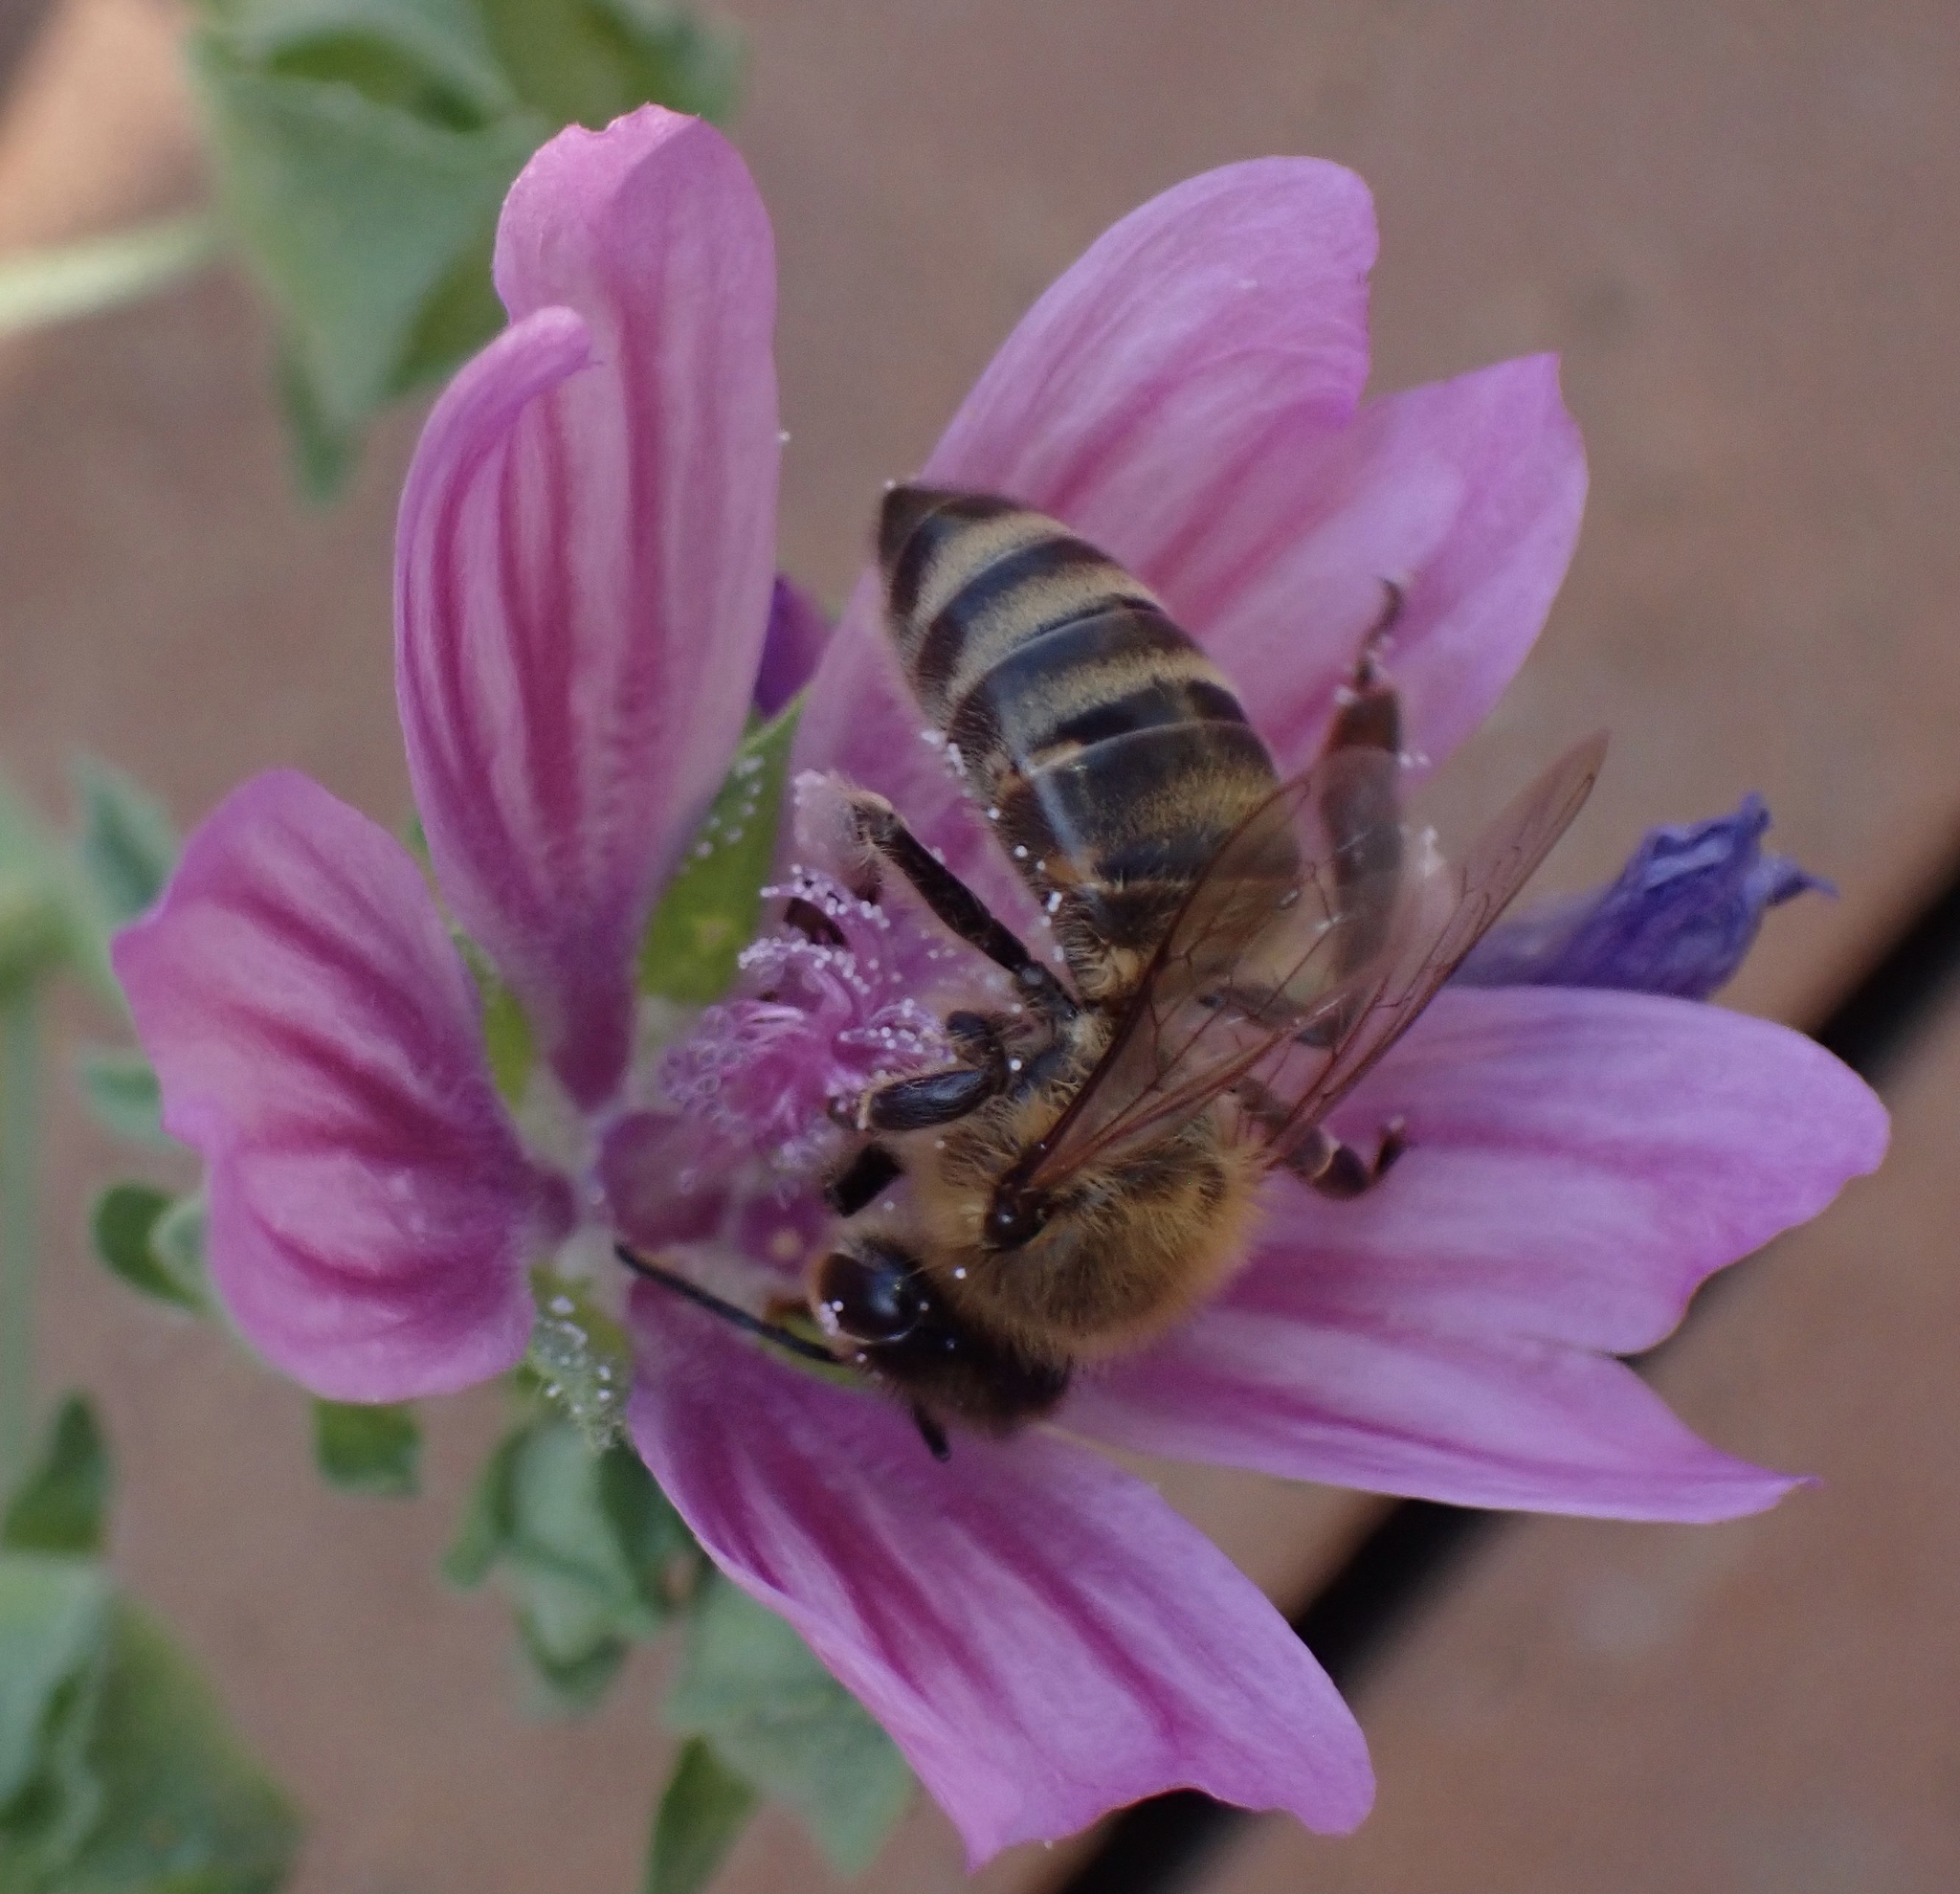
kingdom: Animalia
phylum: Arthropoda
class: Insecta
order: Hymenoptera
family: Apidae
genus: Apis
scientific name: Apis mellifera
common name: Honey bee
